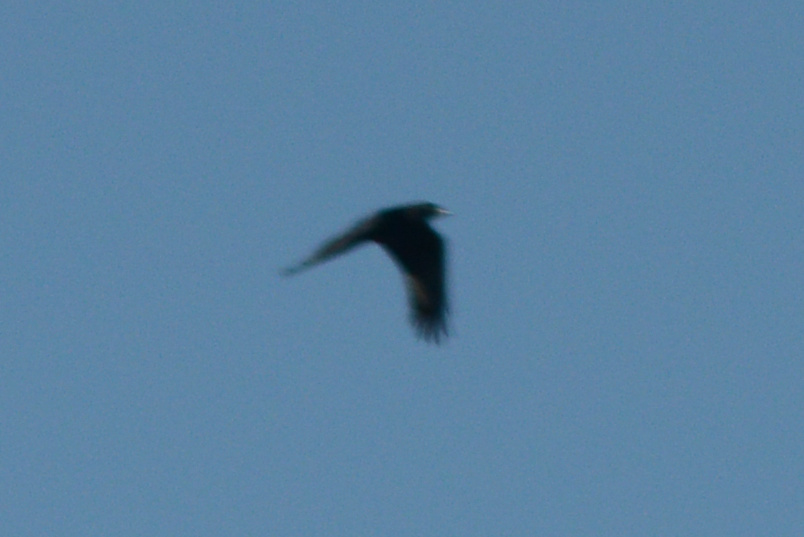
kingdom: Animalia
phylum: Chordata
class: Aves
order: Passeriformes
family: Corvidae
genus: Corvus
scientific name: Corvus brachyrhynchos
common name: American crow
